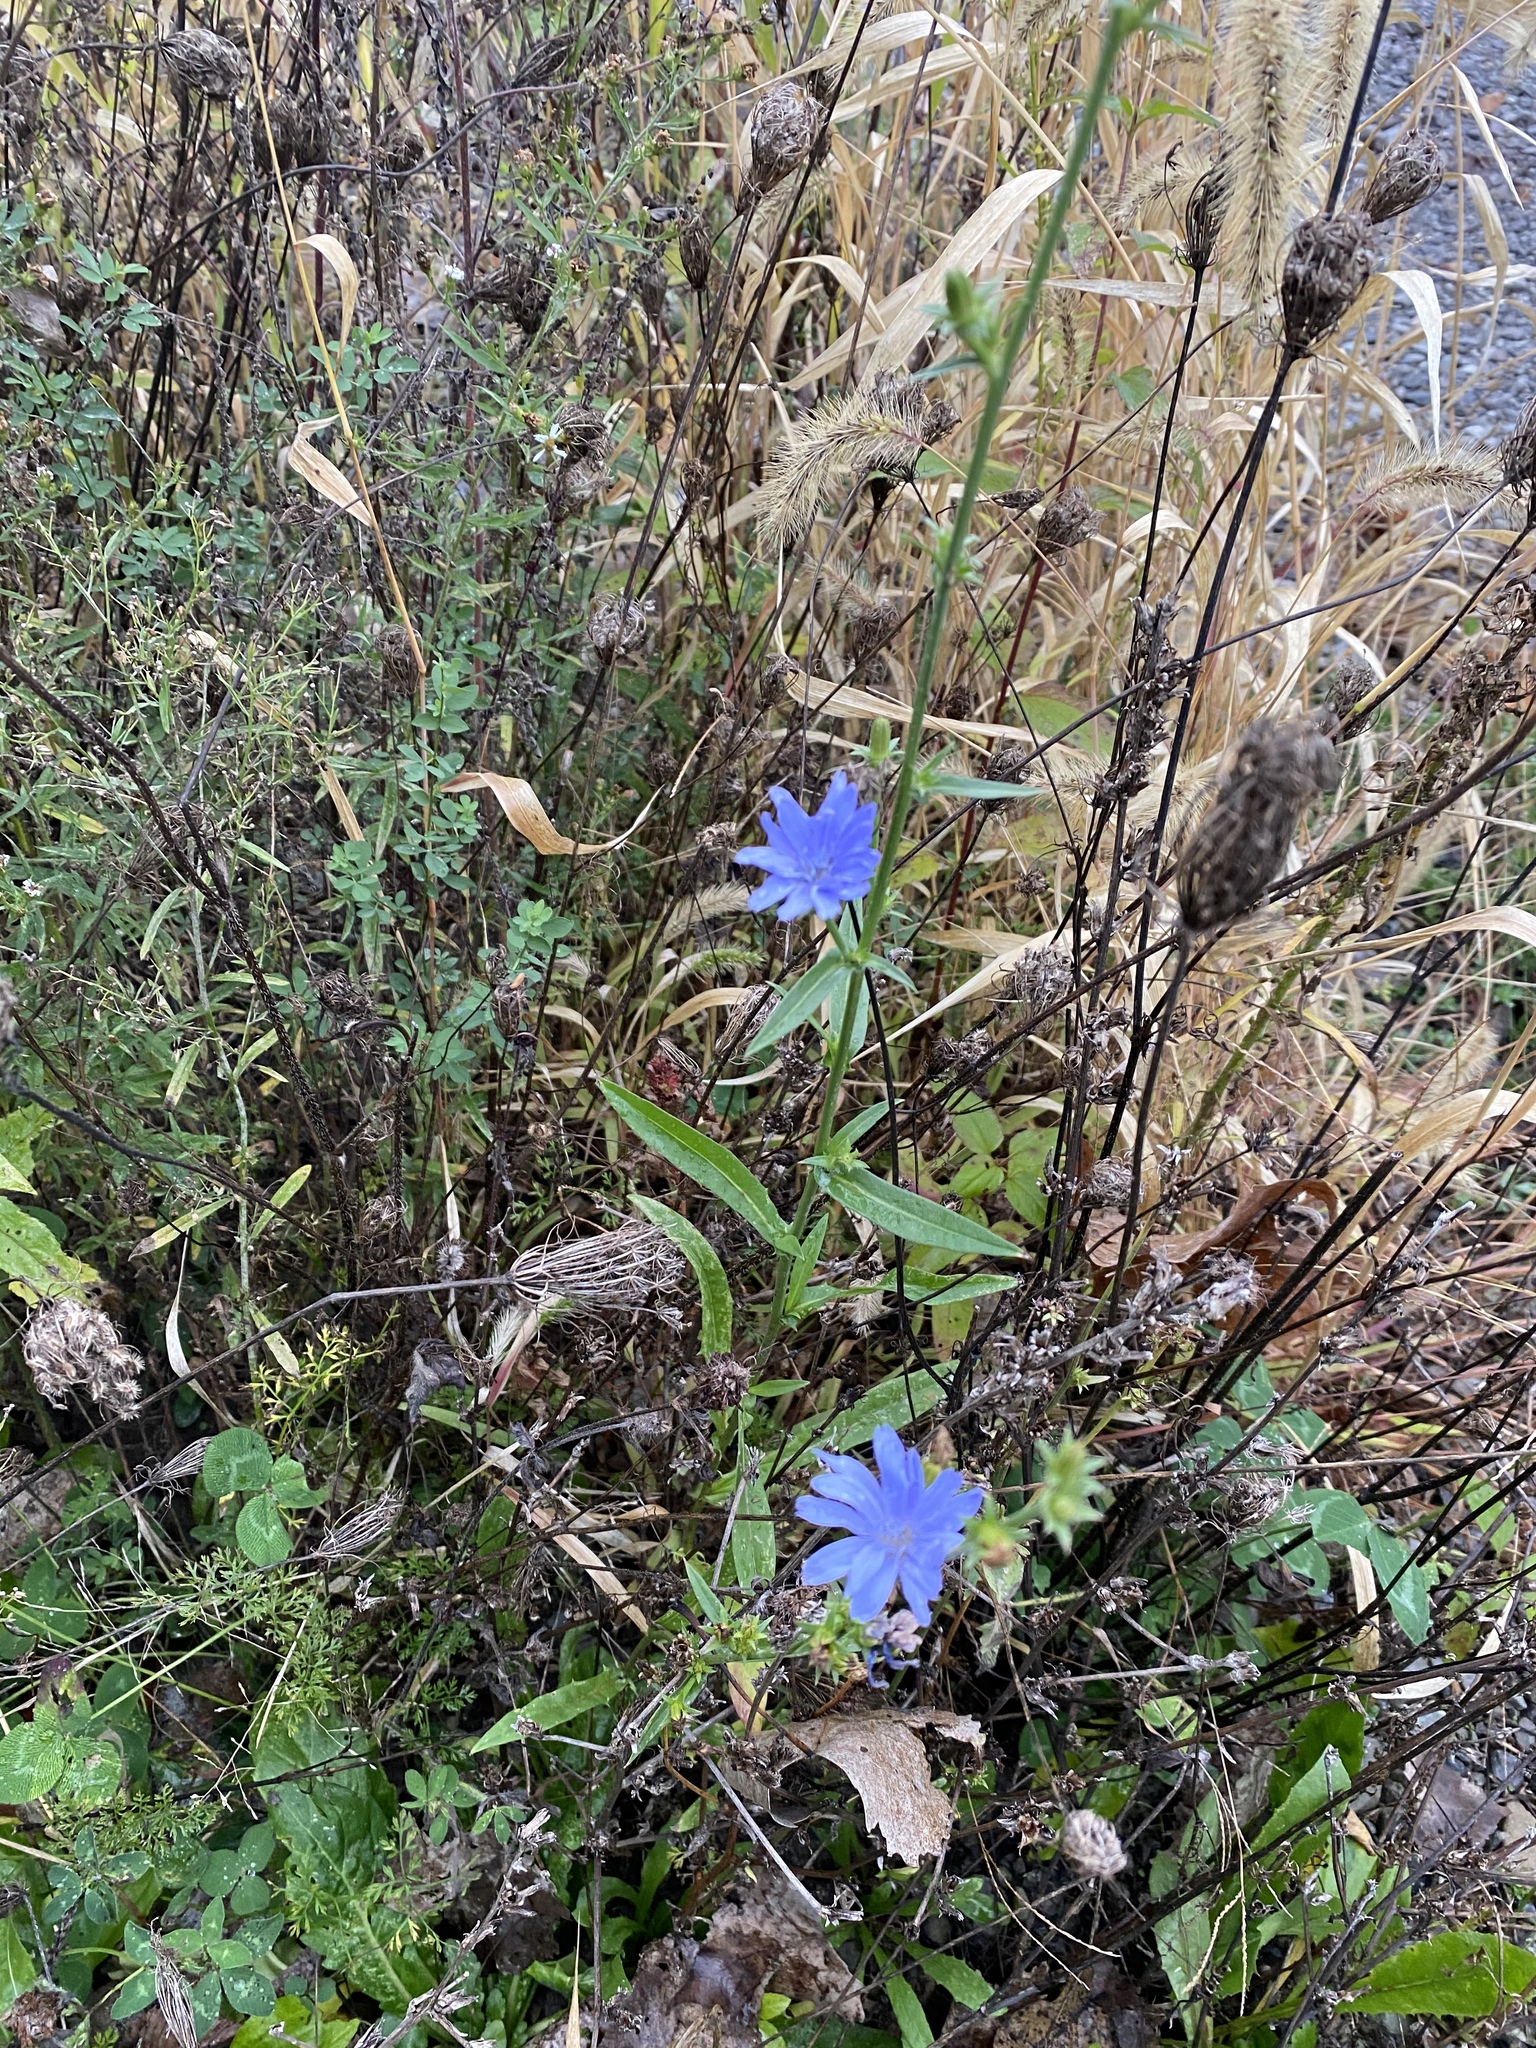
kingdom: Plantae
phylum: Tracheophyta
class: Magnoliopsida
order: Asterales
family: Asteraceae
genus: Cichorium
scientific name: Cichorium intybus
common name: Chicory
